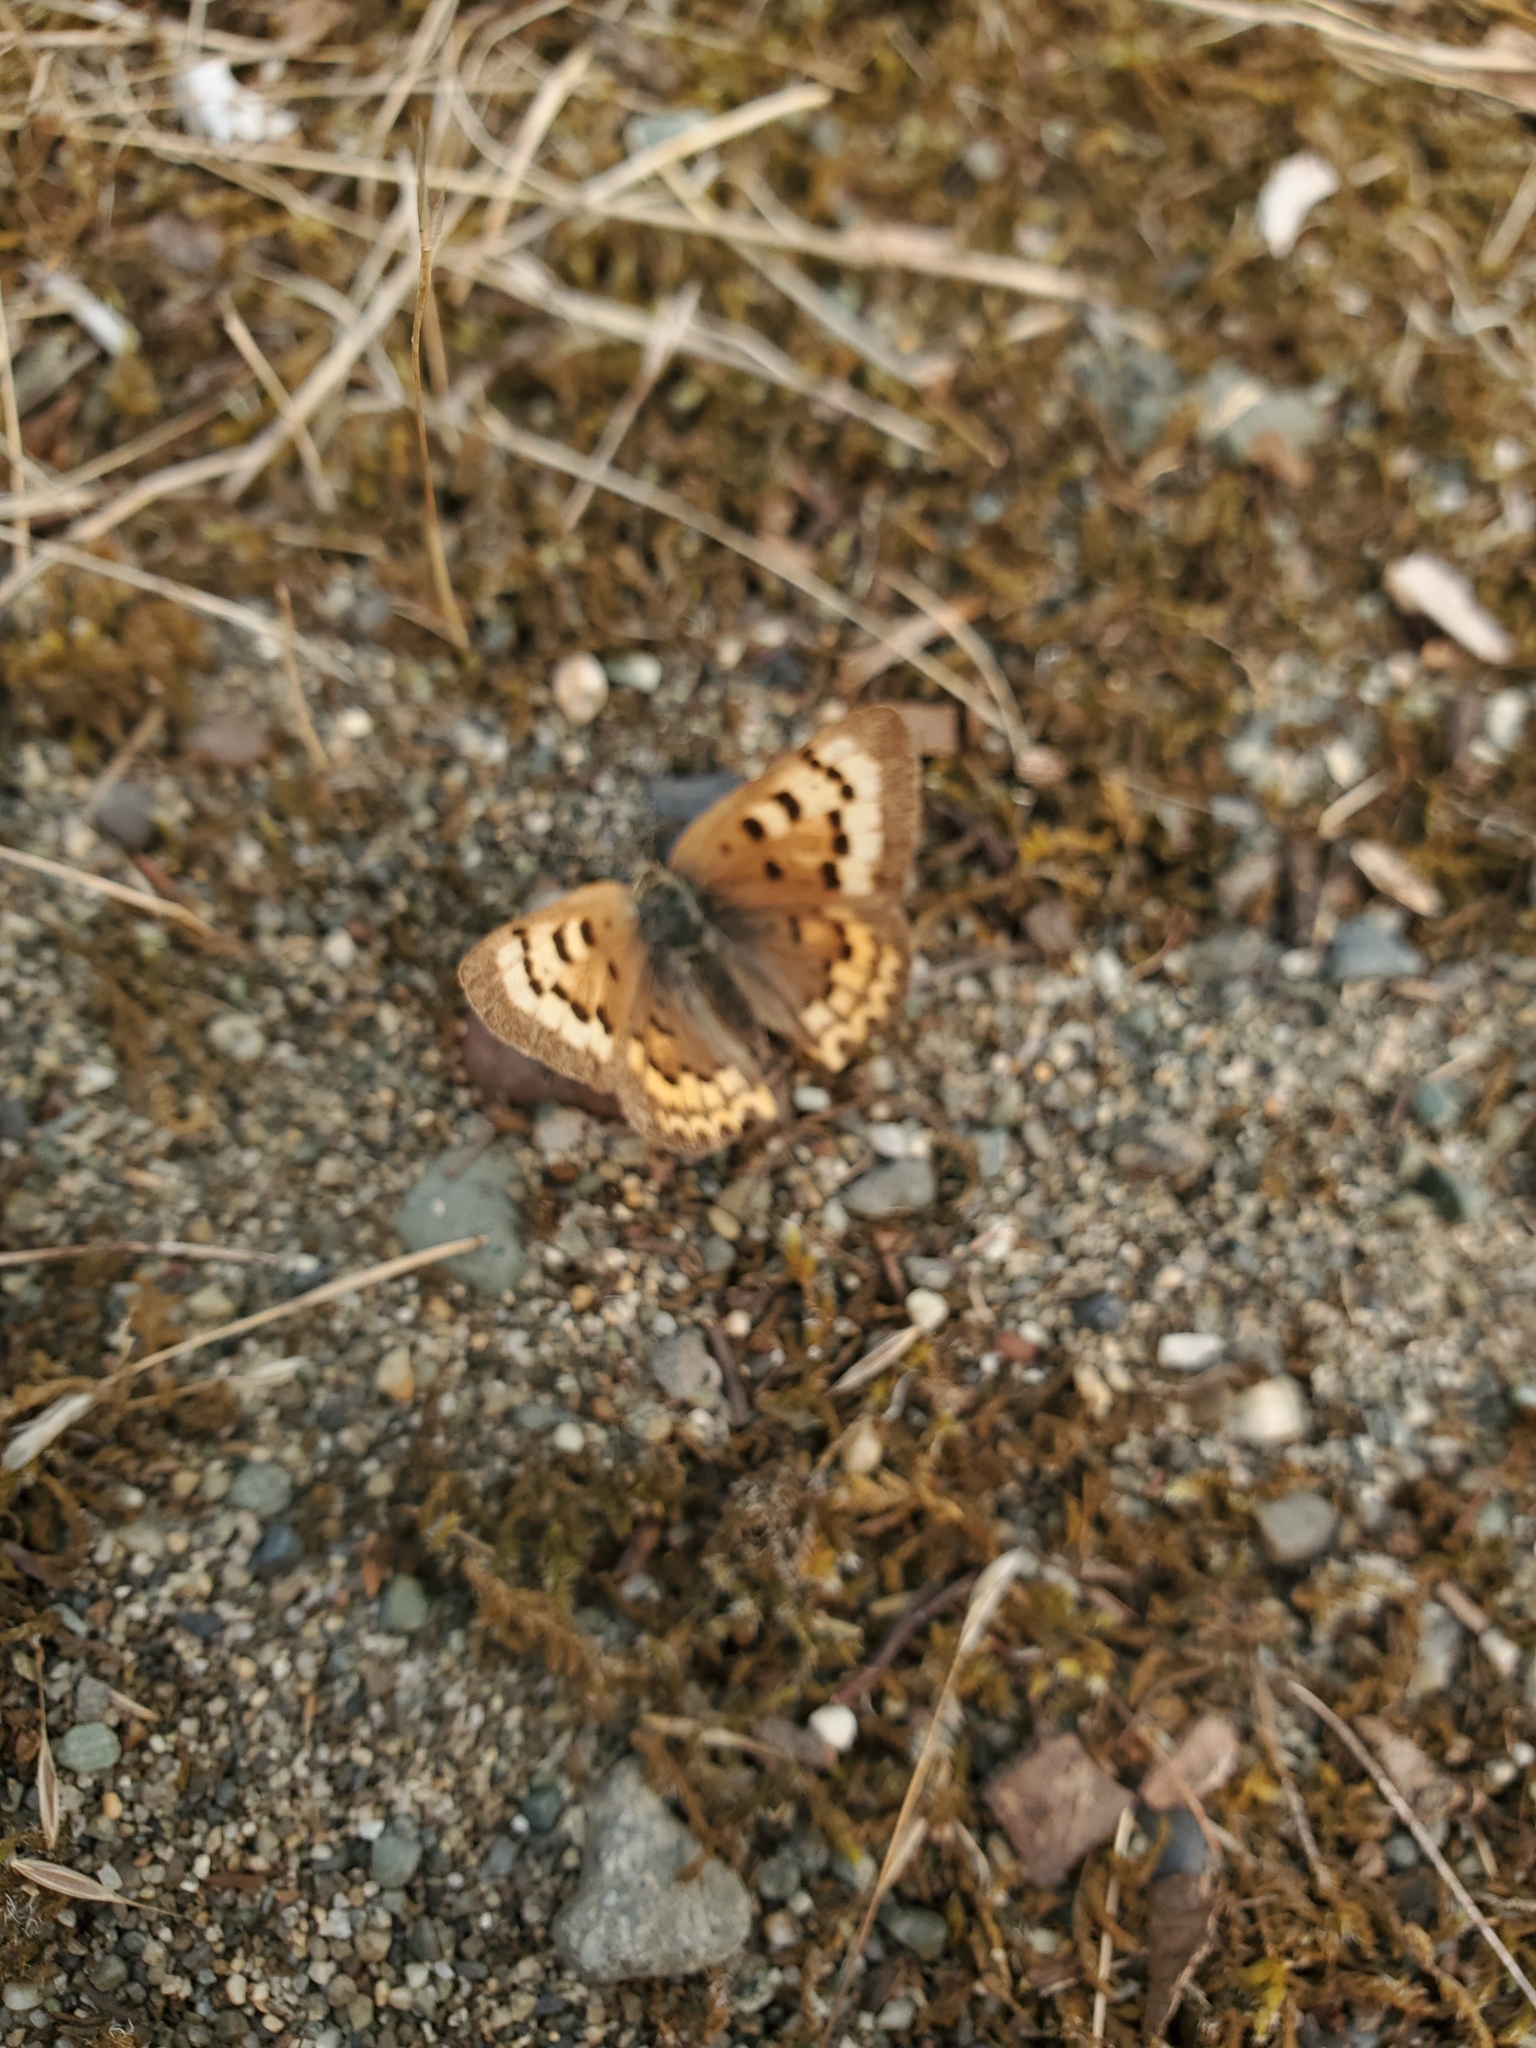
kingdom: Animalia
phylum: Arthropoda
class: Insecta
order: Lepidoptera
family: Lycaenidae
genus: Tharsalea
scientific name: Tharsalea helloides
